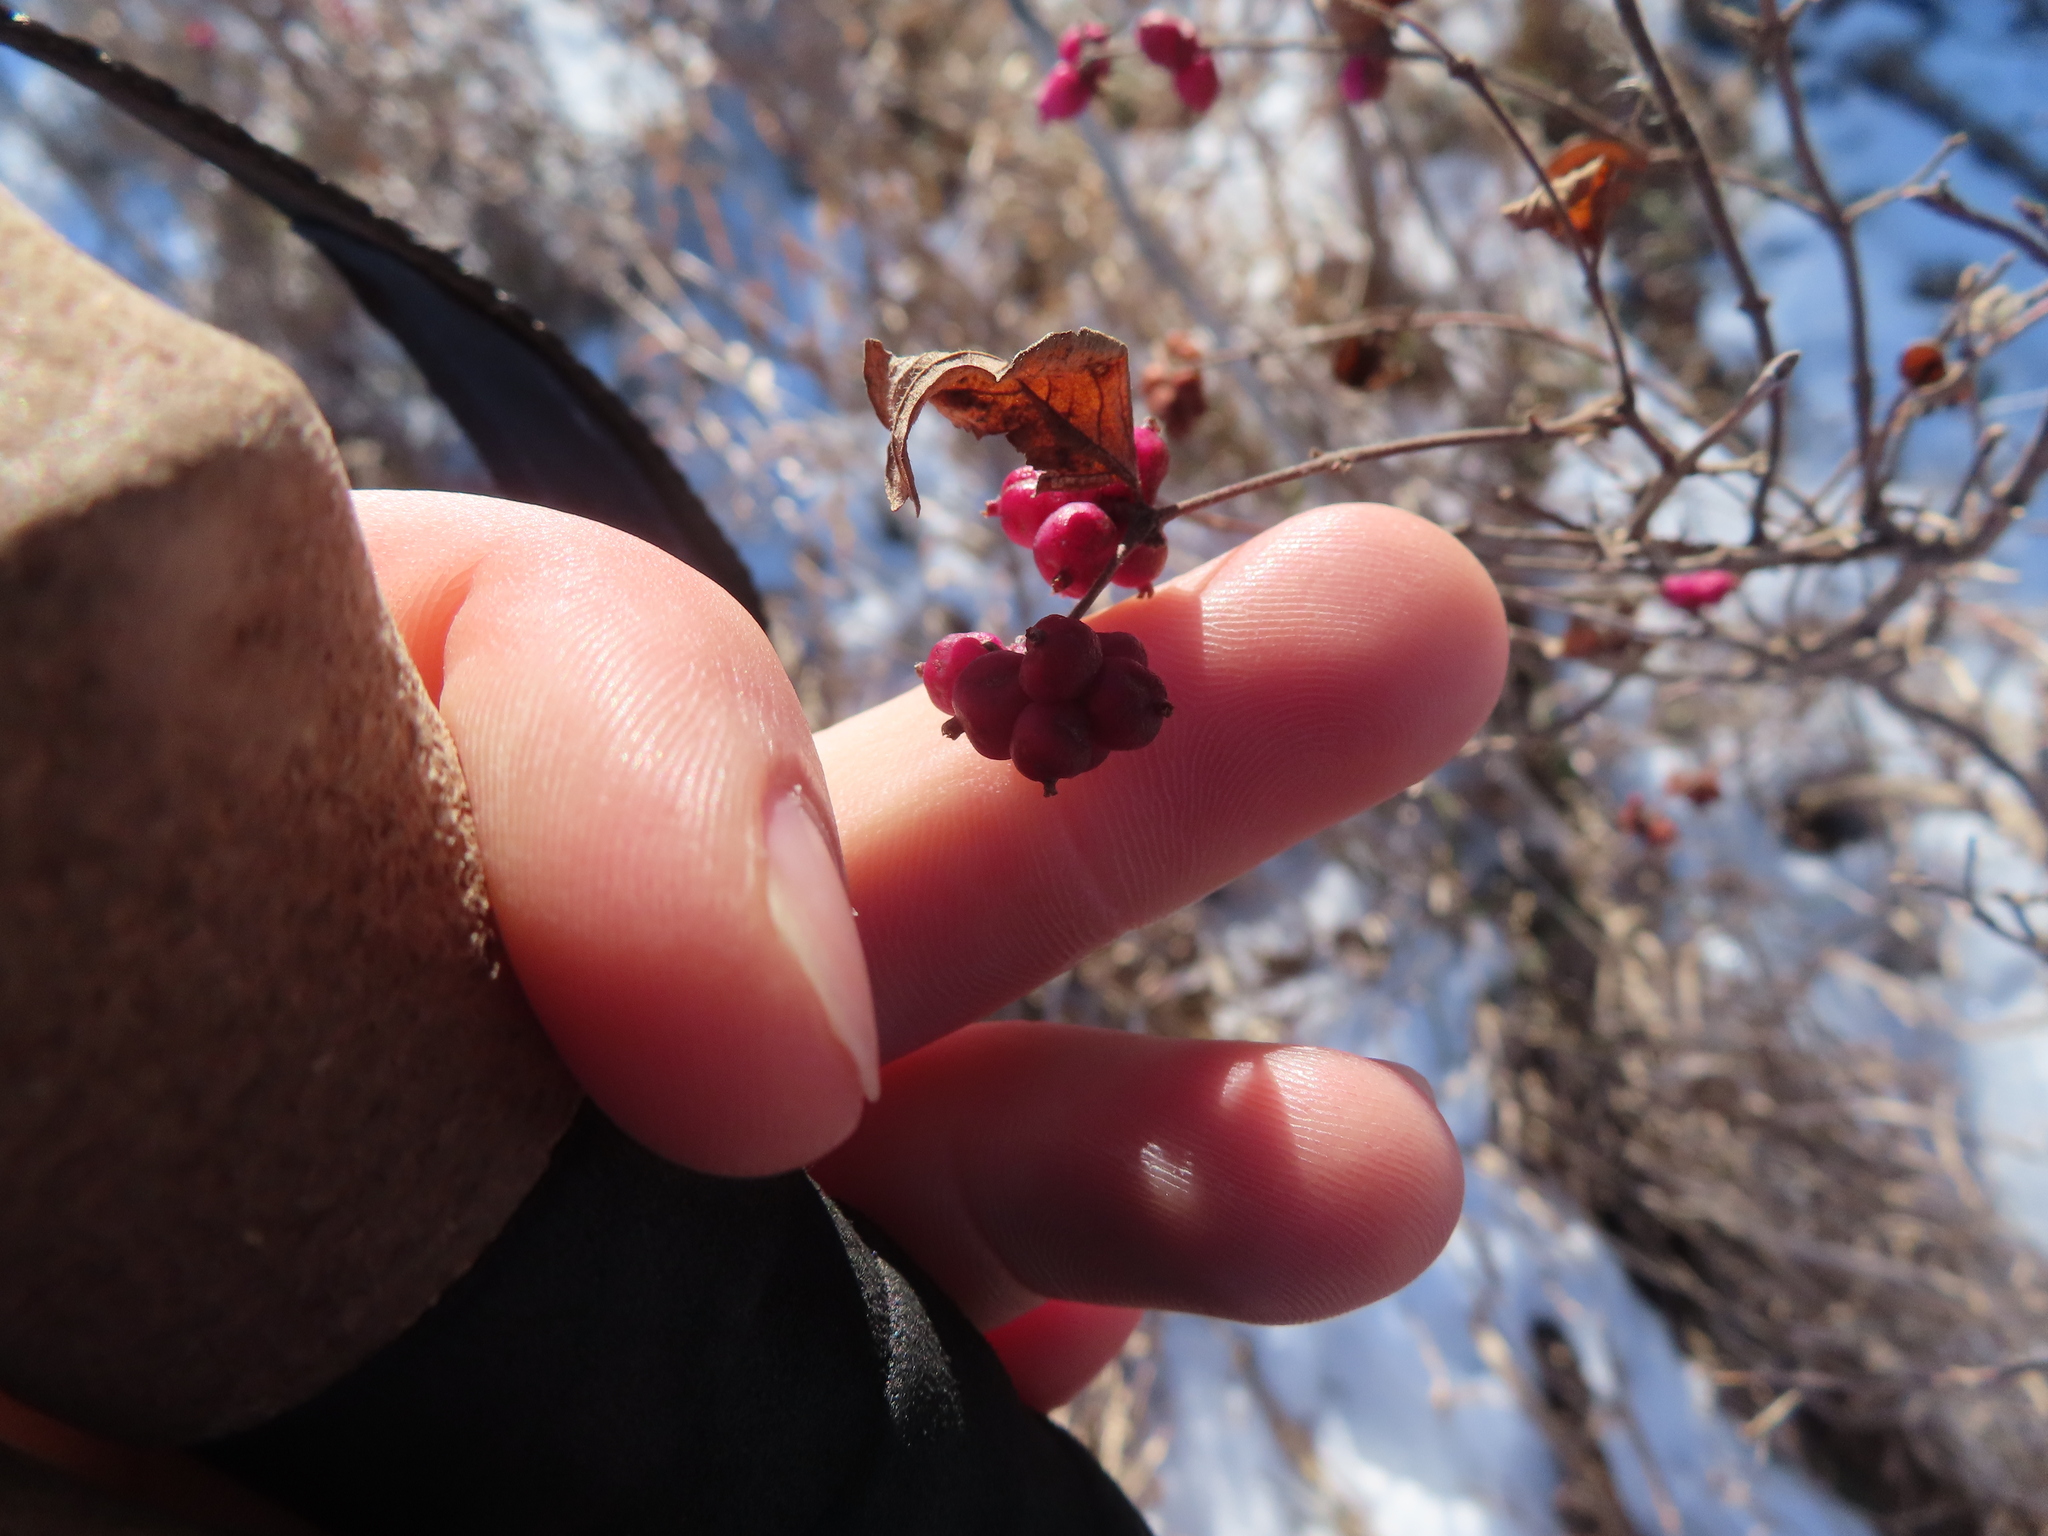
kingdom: Plantae
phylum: Tracheophyta
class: Magnoliopsida
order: Dipsacales
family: Caprifoliaceae
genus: Symphoricarpos
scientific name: Symphoricarpos orbiculatus
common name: Coralberry
